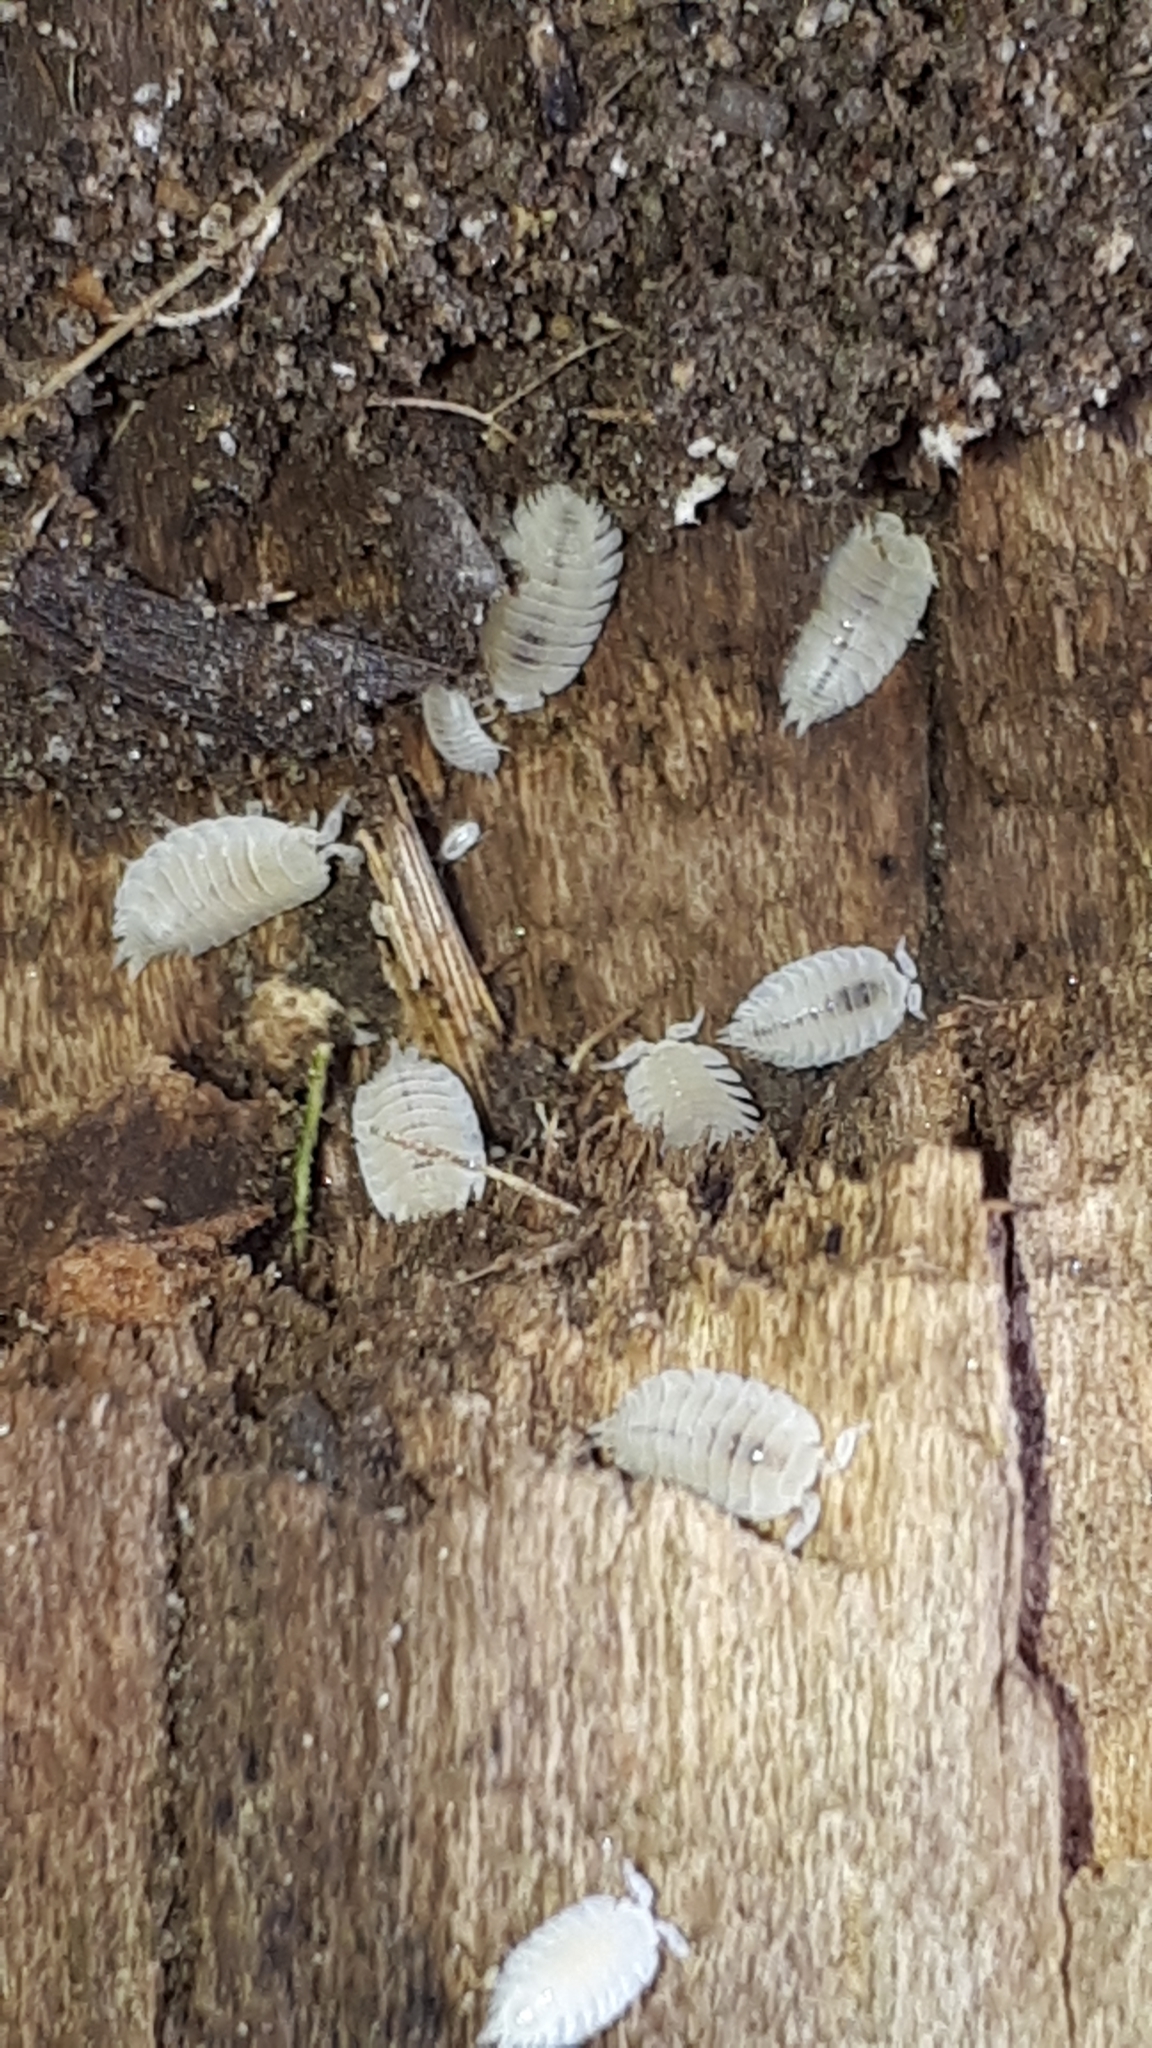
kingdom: Animalia
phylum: Arthropoda
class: Malacostraca
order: Isopoda
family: Platyarthridae
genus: Platyarthrus
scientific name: Platyarthrus hoffmannseggii
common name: Ant woodlouse
